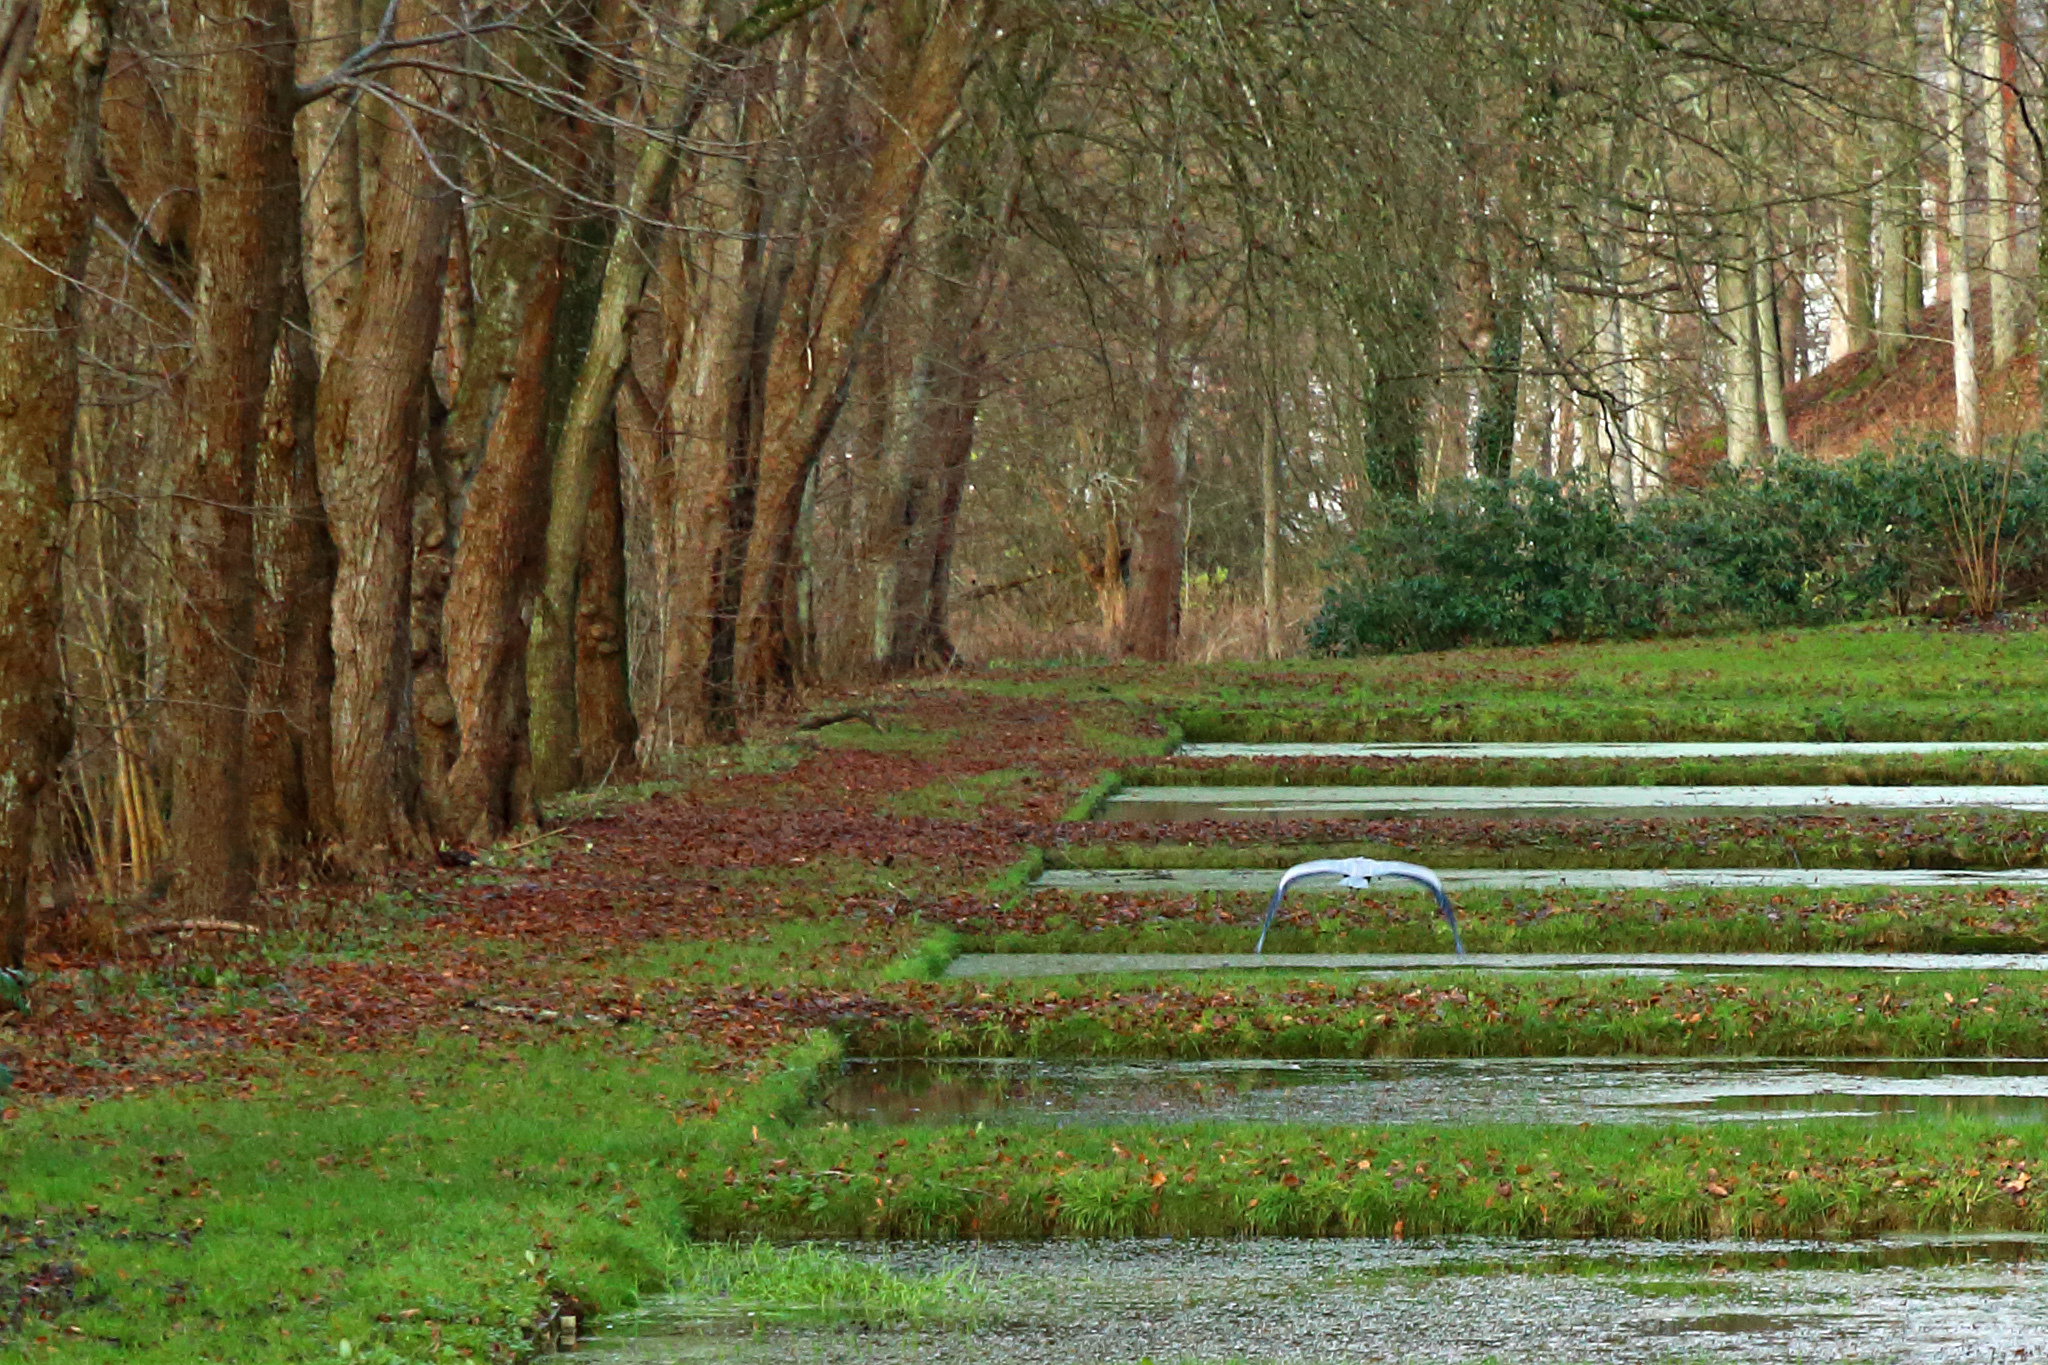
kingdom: Animalia
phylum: Chordata
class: Aves
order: Pelecaniformes
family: Ardeidae
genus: Ardea
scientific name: Ardea cinerea
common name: Grey heron
